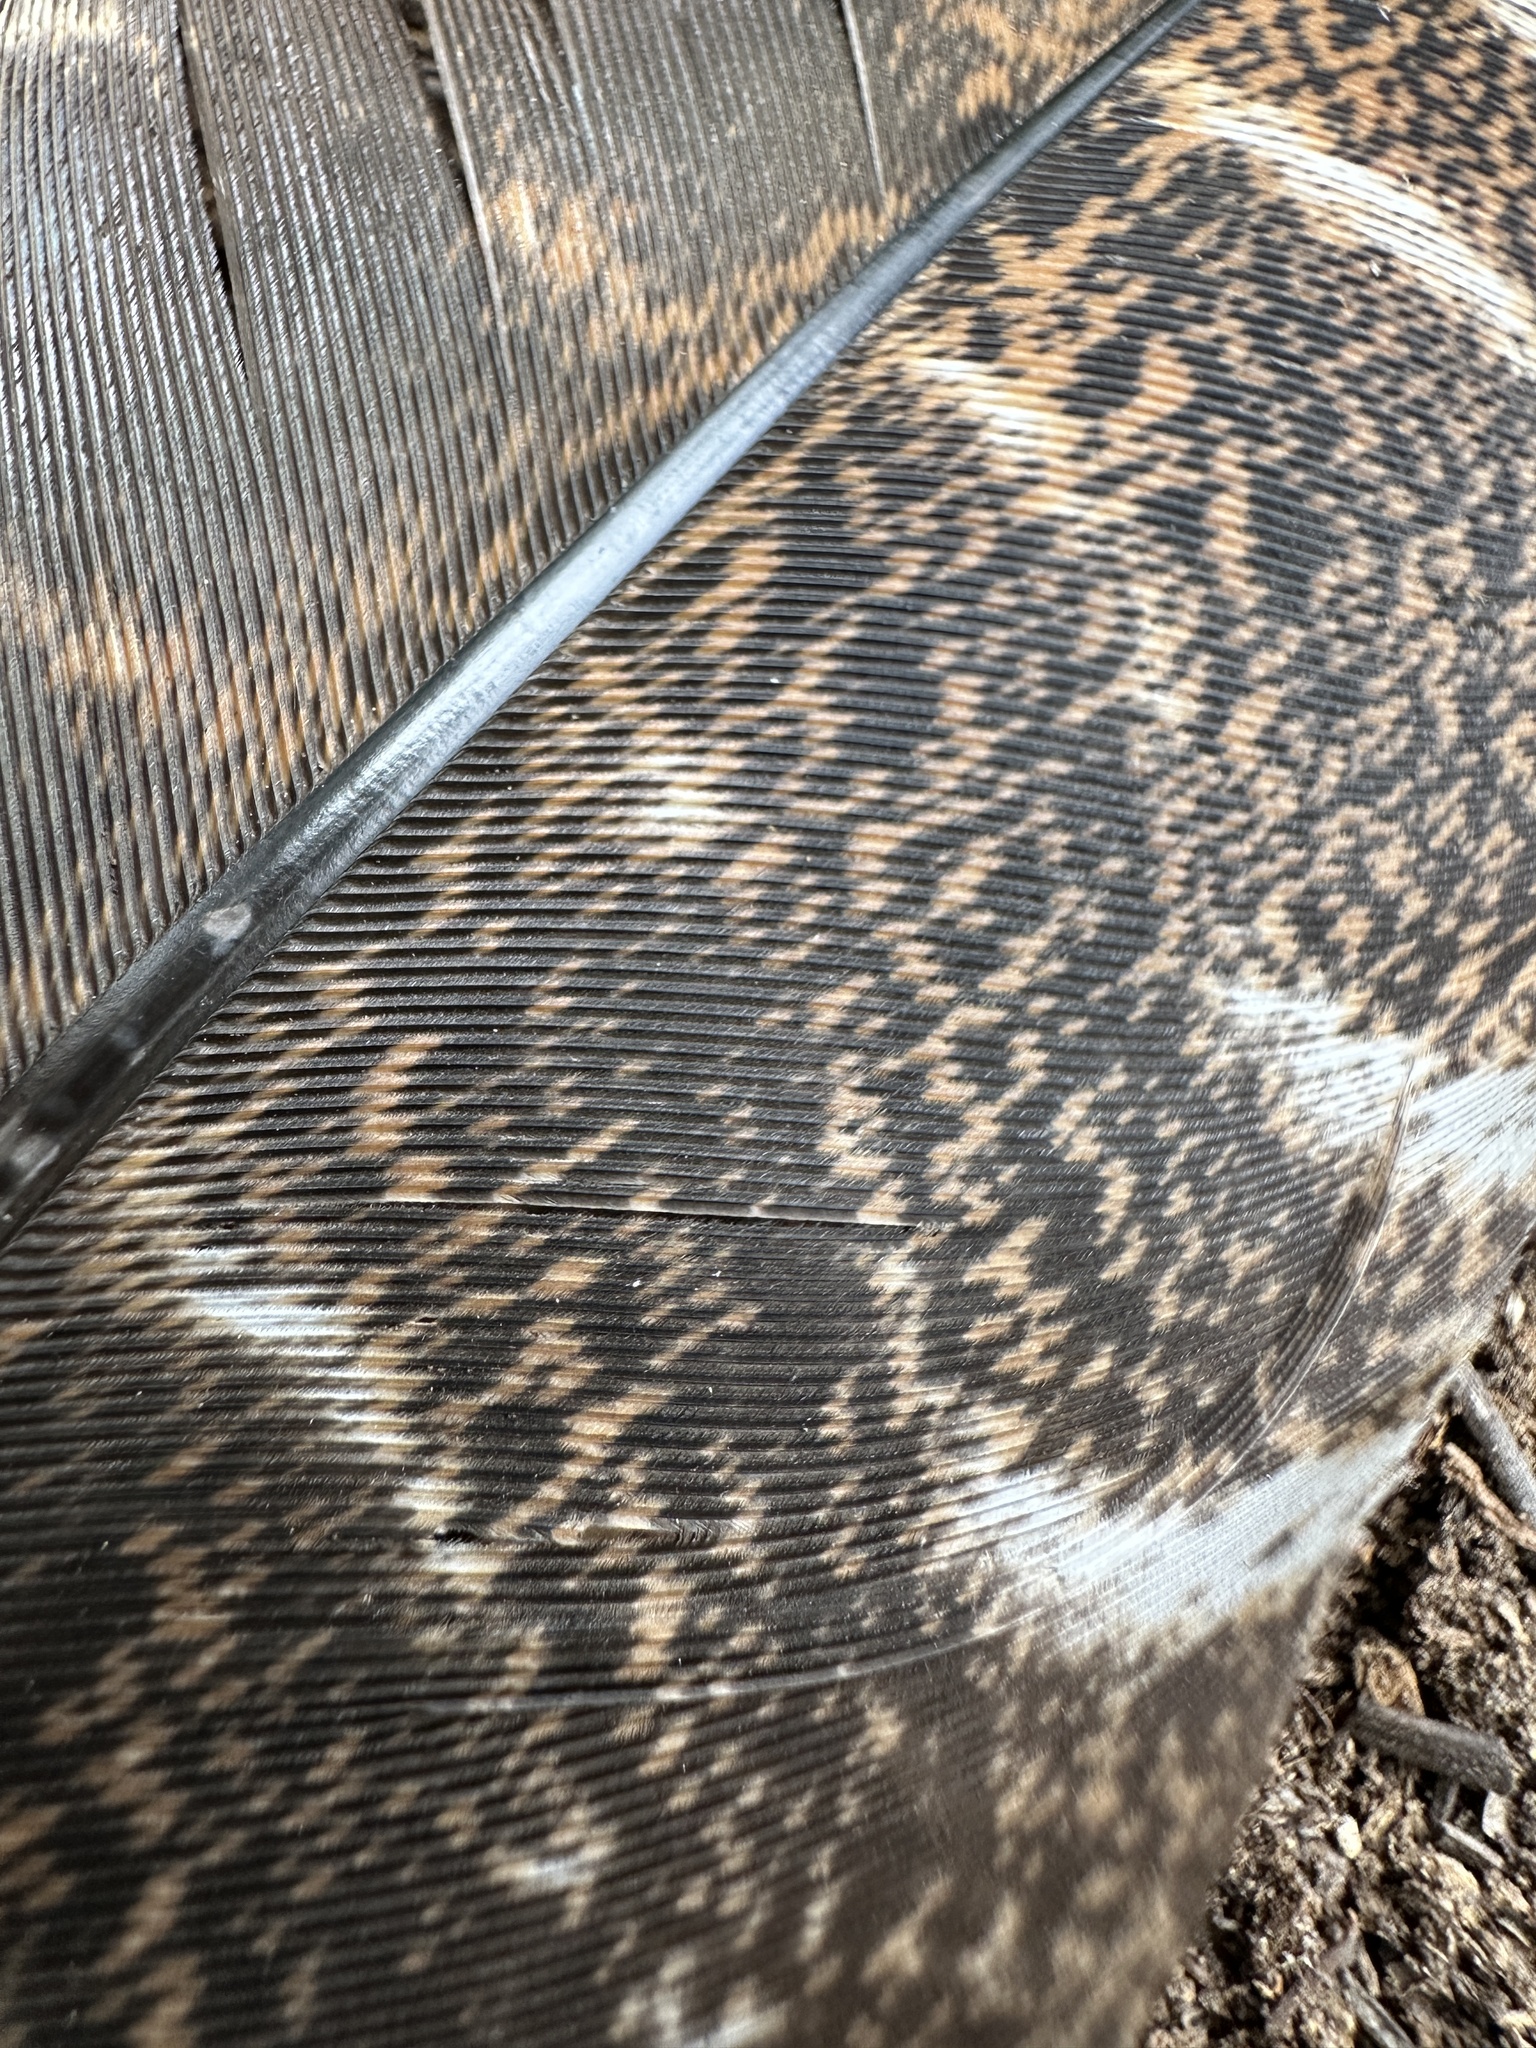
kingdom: Animalia
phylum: Chordata
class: Aves
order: Galliformes
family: Phasianidae
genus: Meleagris
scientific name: Meleagris gallopavo
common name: Wild turkey
